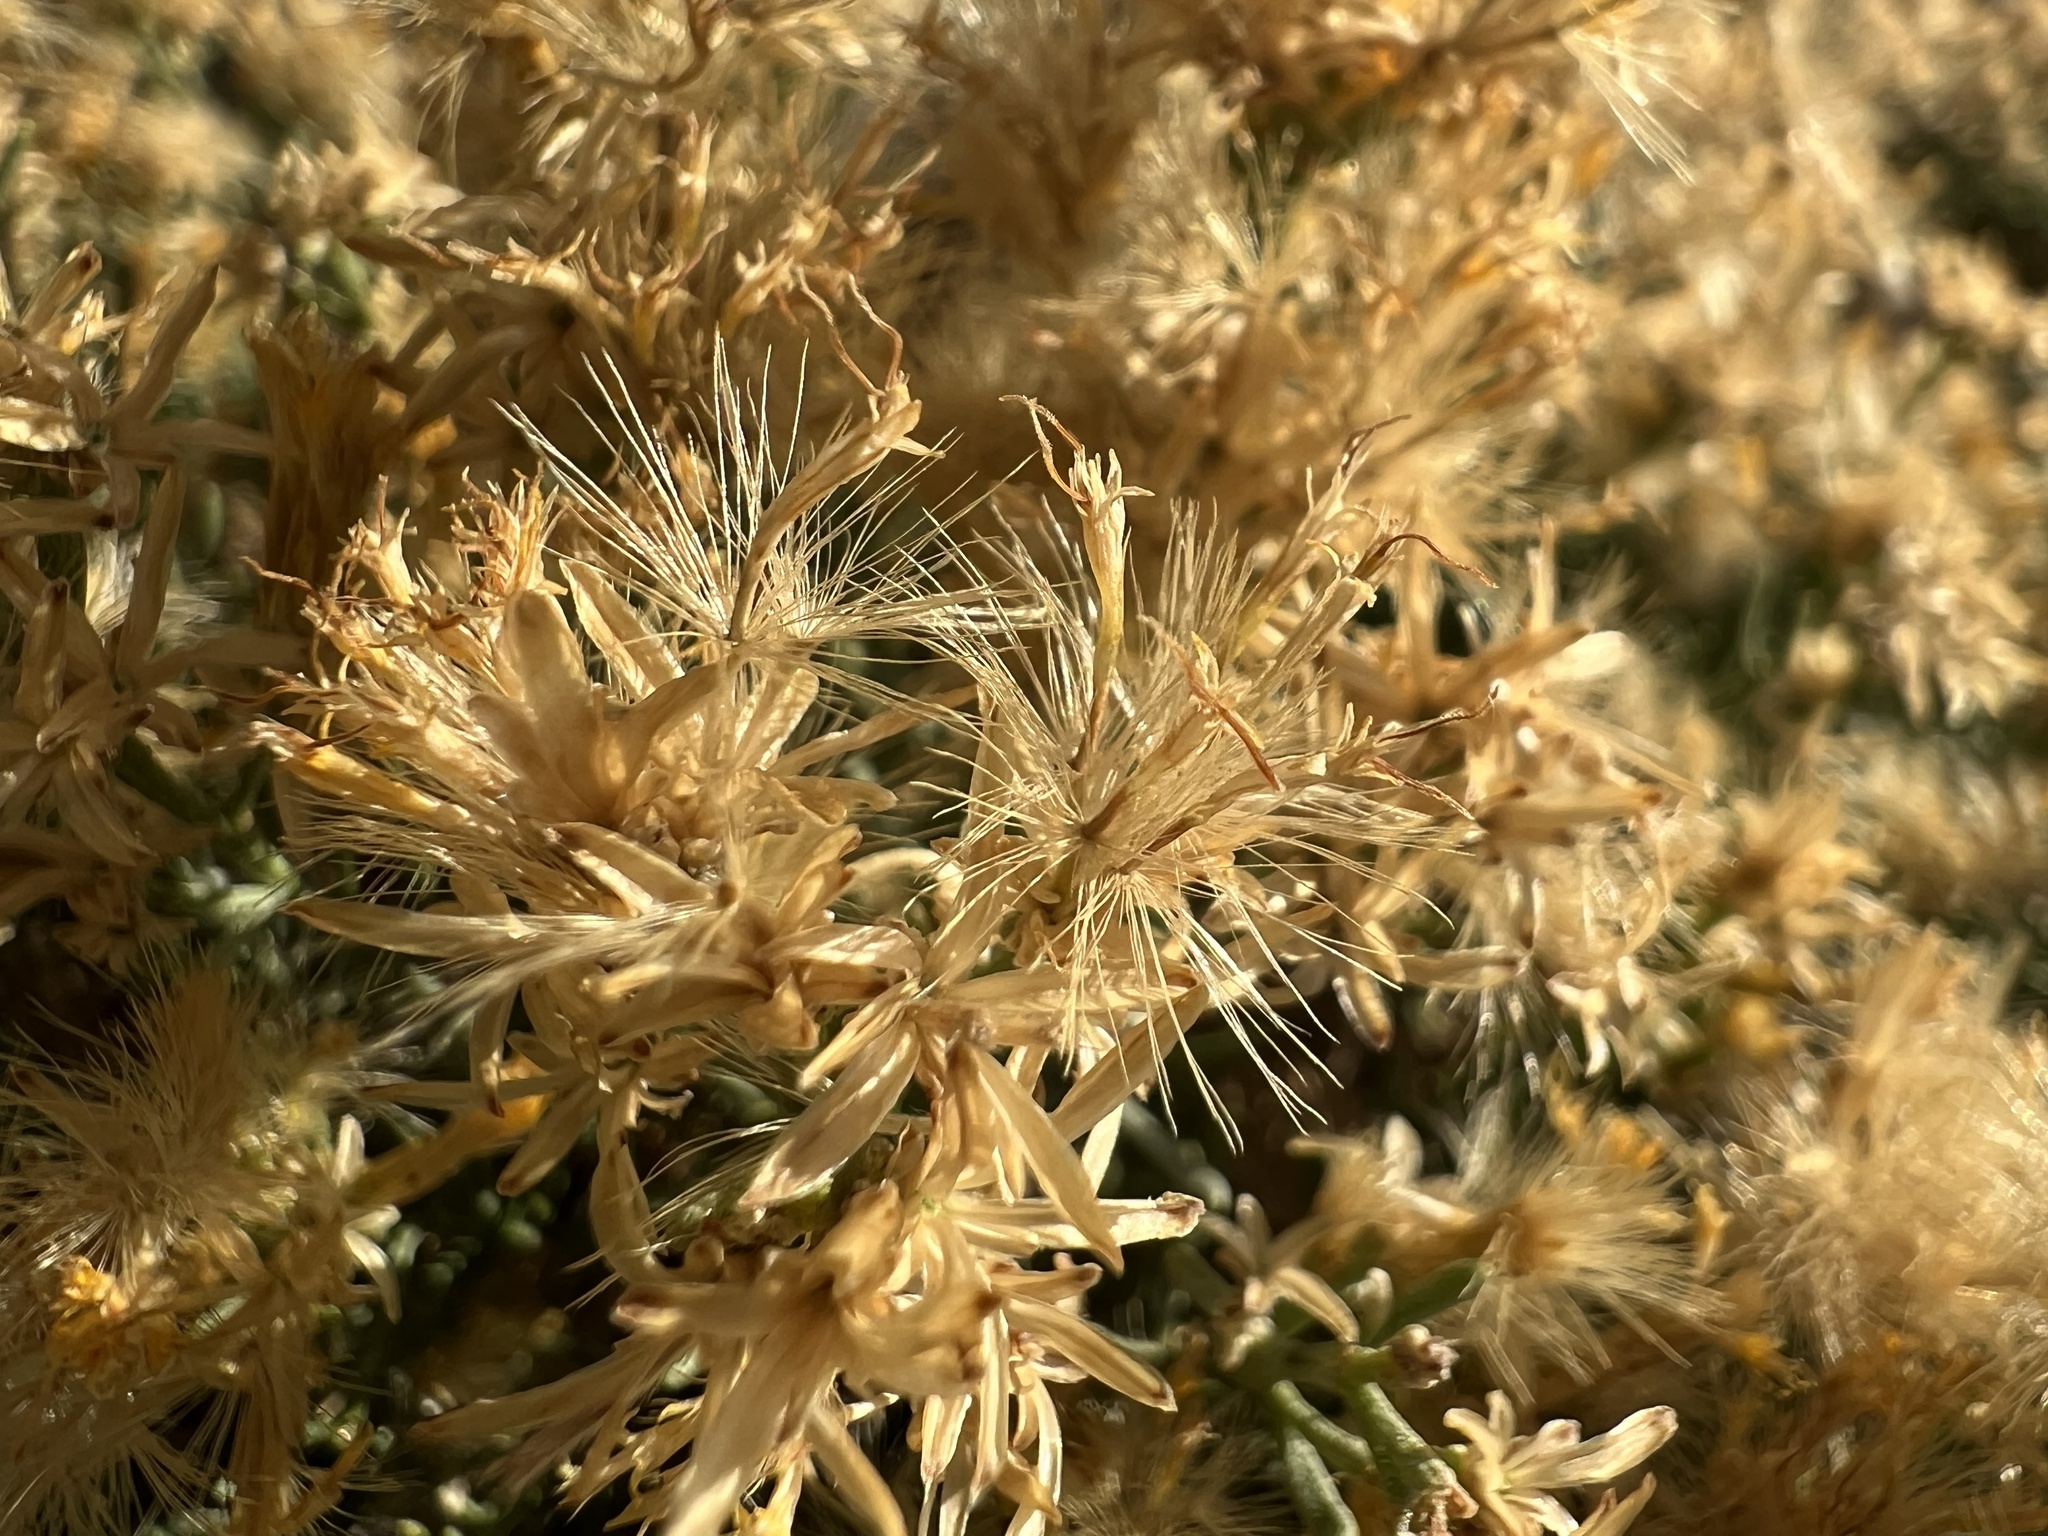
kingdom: Plantae
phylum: Tracheophyta
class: Magnoliopsida
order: Asterales
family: Asteraceae
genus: Ericameria
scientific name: Ericameria teretifolia
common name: Round-leaf rabbitbrush
